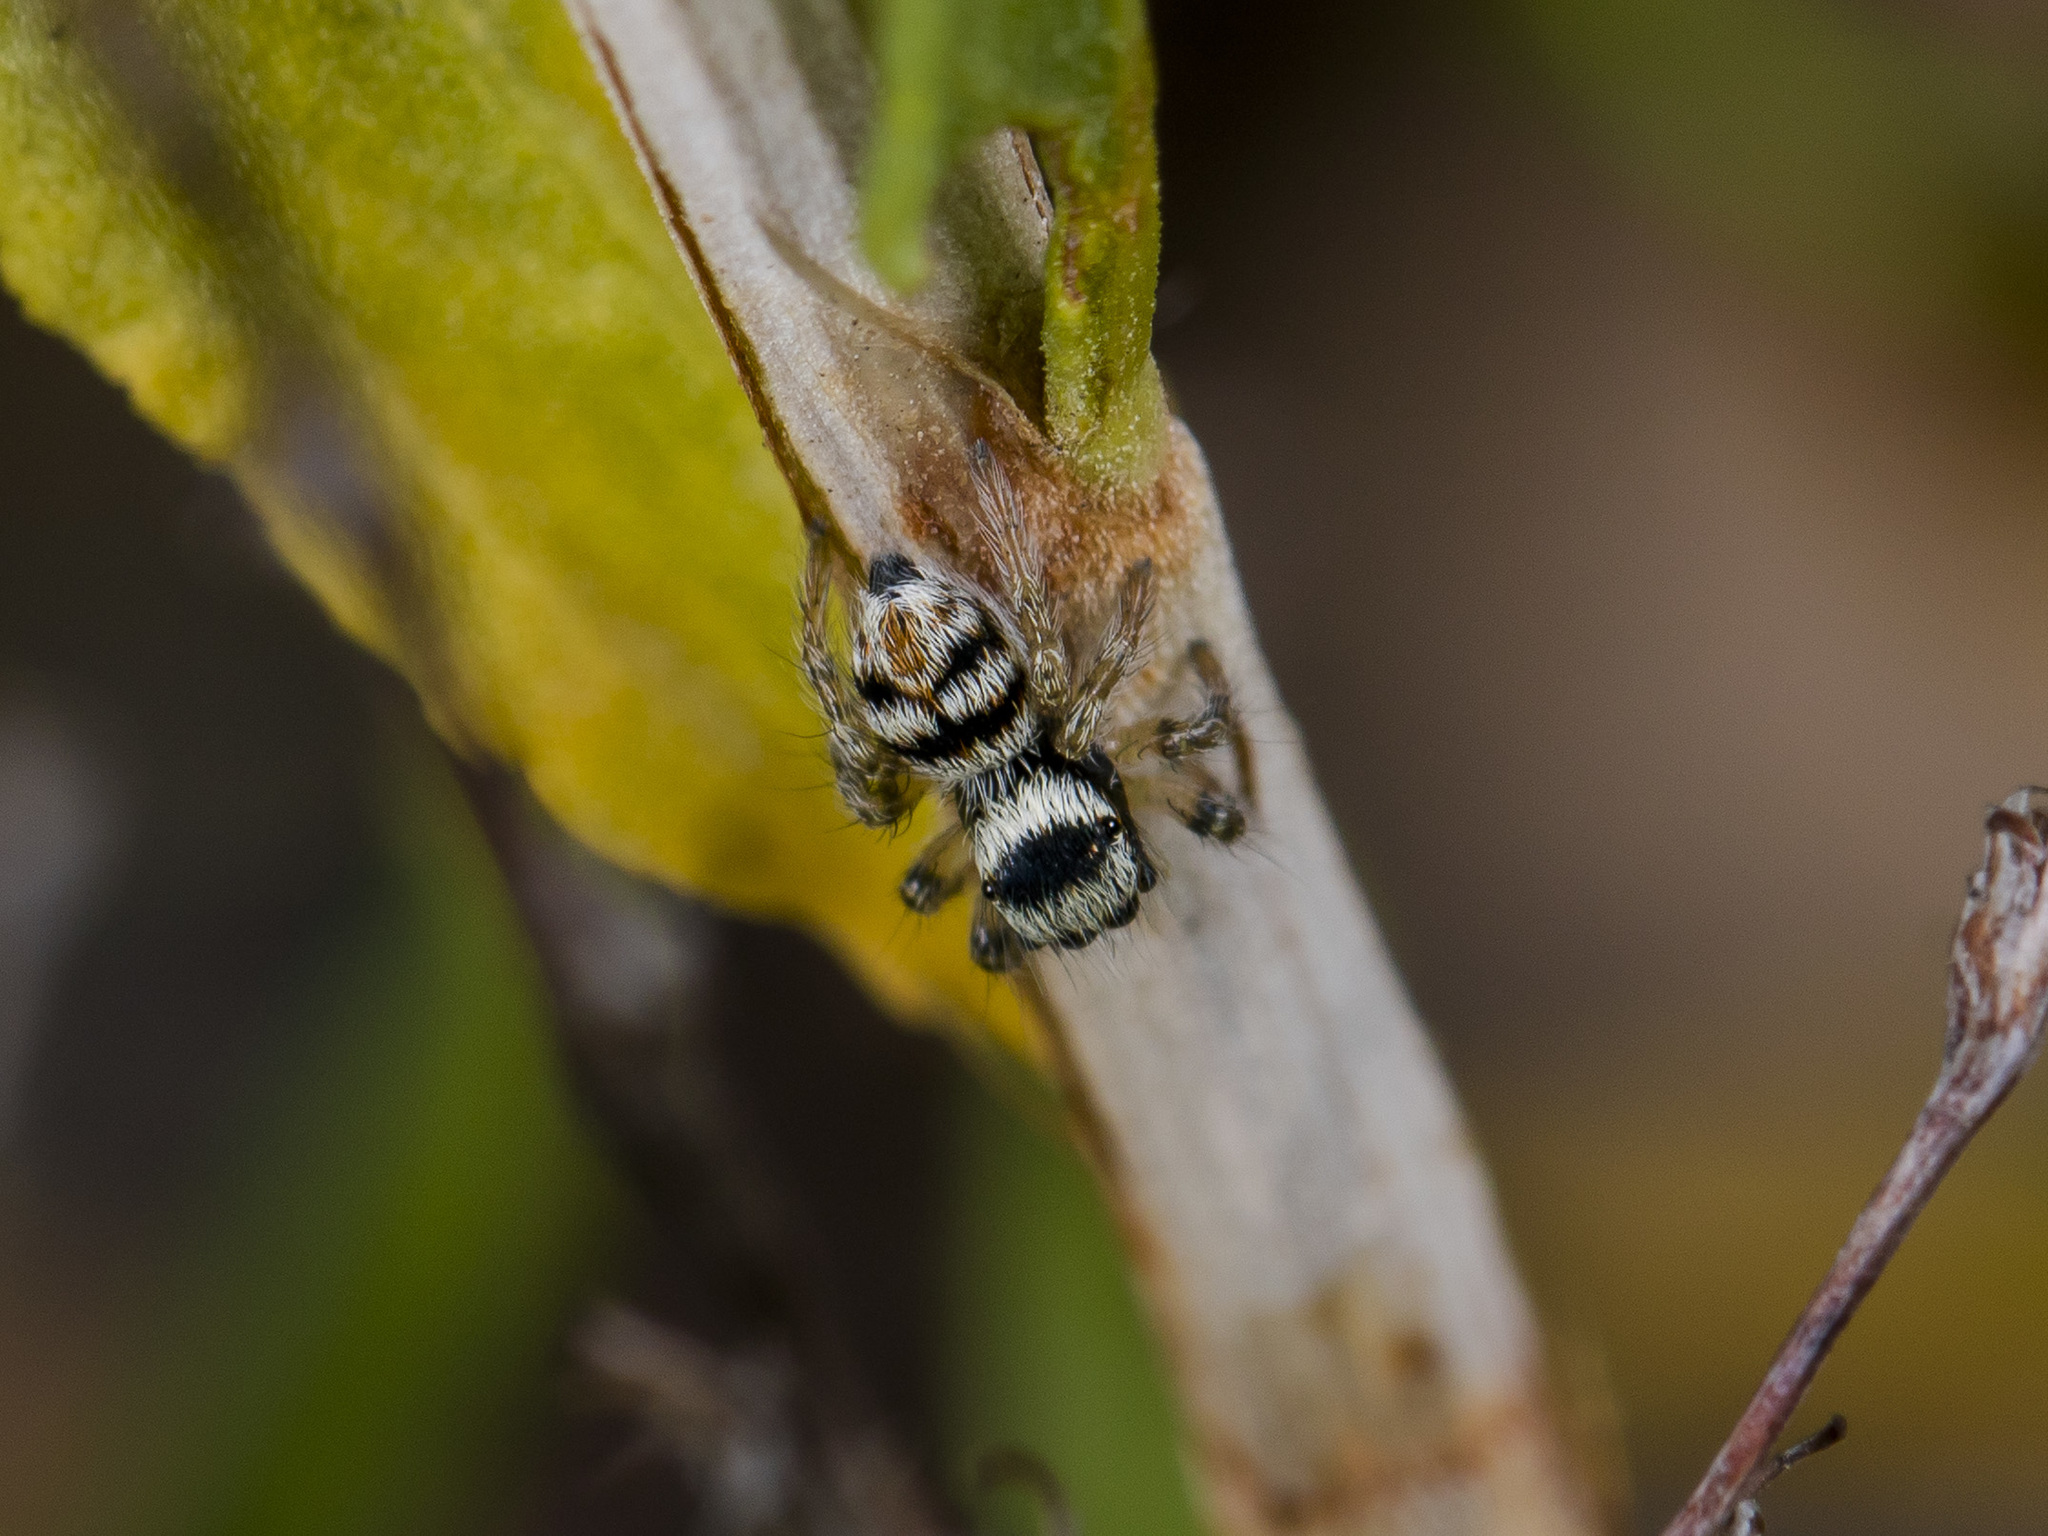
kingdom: Animalia
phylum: Arthropoda
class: Arachnida
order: Araneae
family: Salticidae
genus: Philaeus
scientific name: Philaeus chrysops
